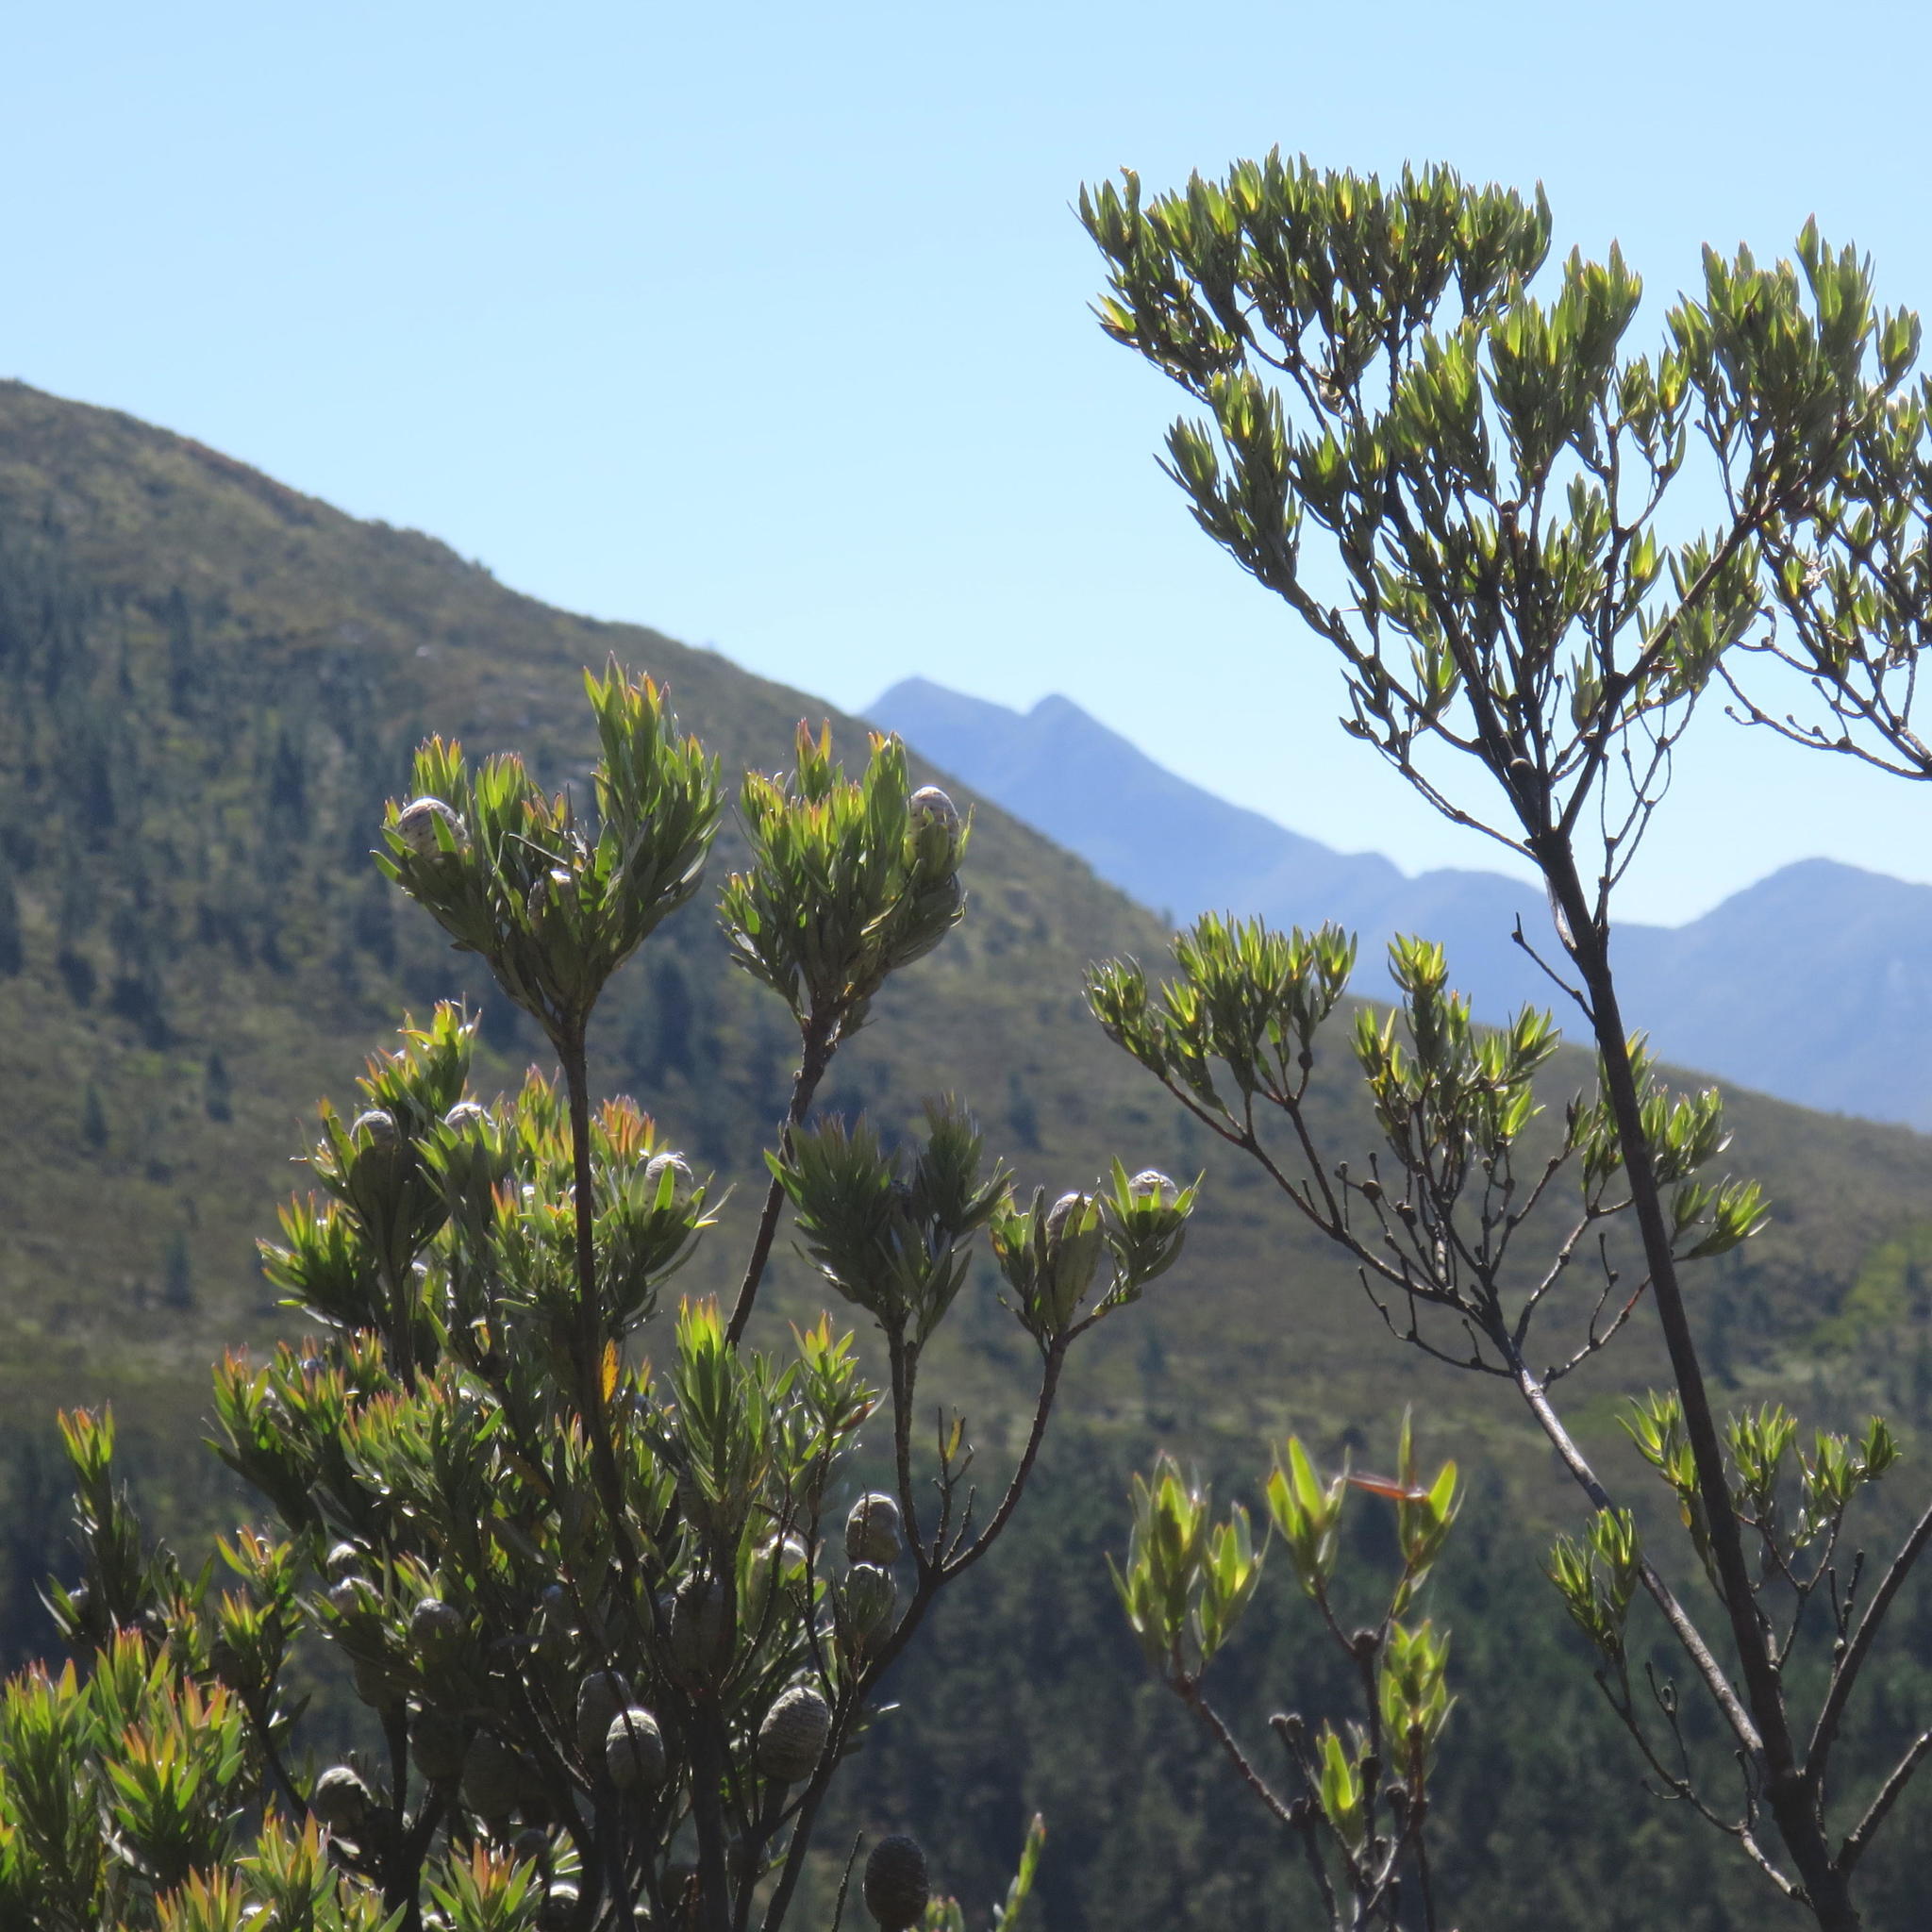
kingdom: Plantae
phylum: Tracheophyta
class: Magnoliopsida
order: Proteales
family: Proteaceae
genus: Leucadendron
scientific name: Leucadendron uliginosum
